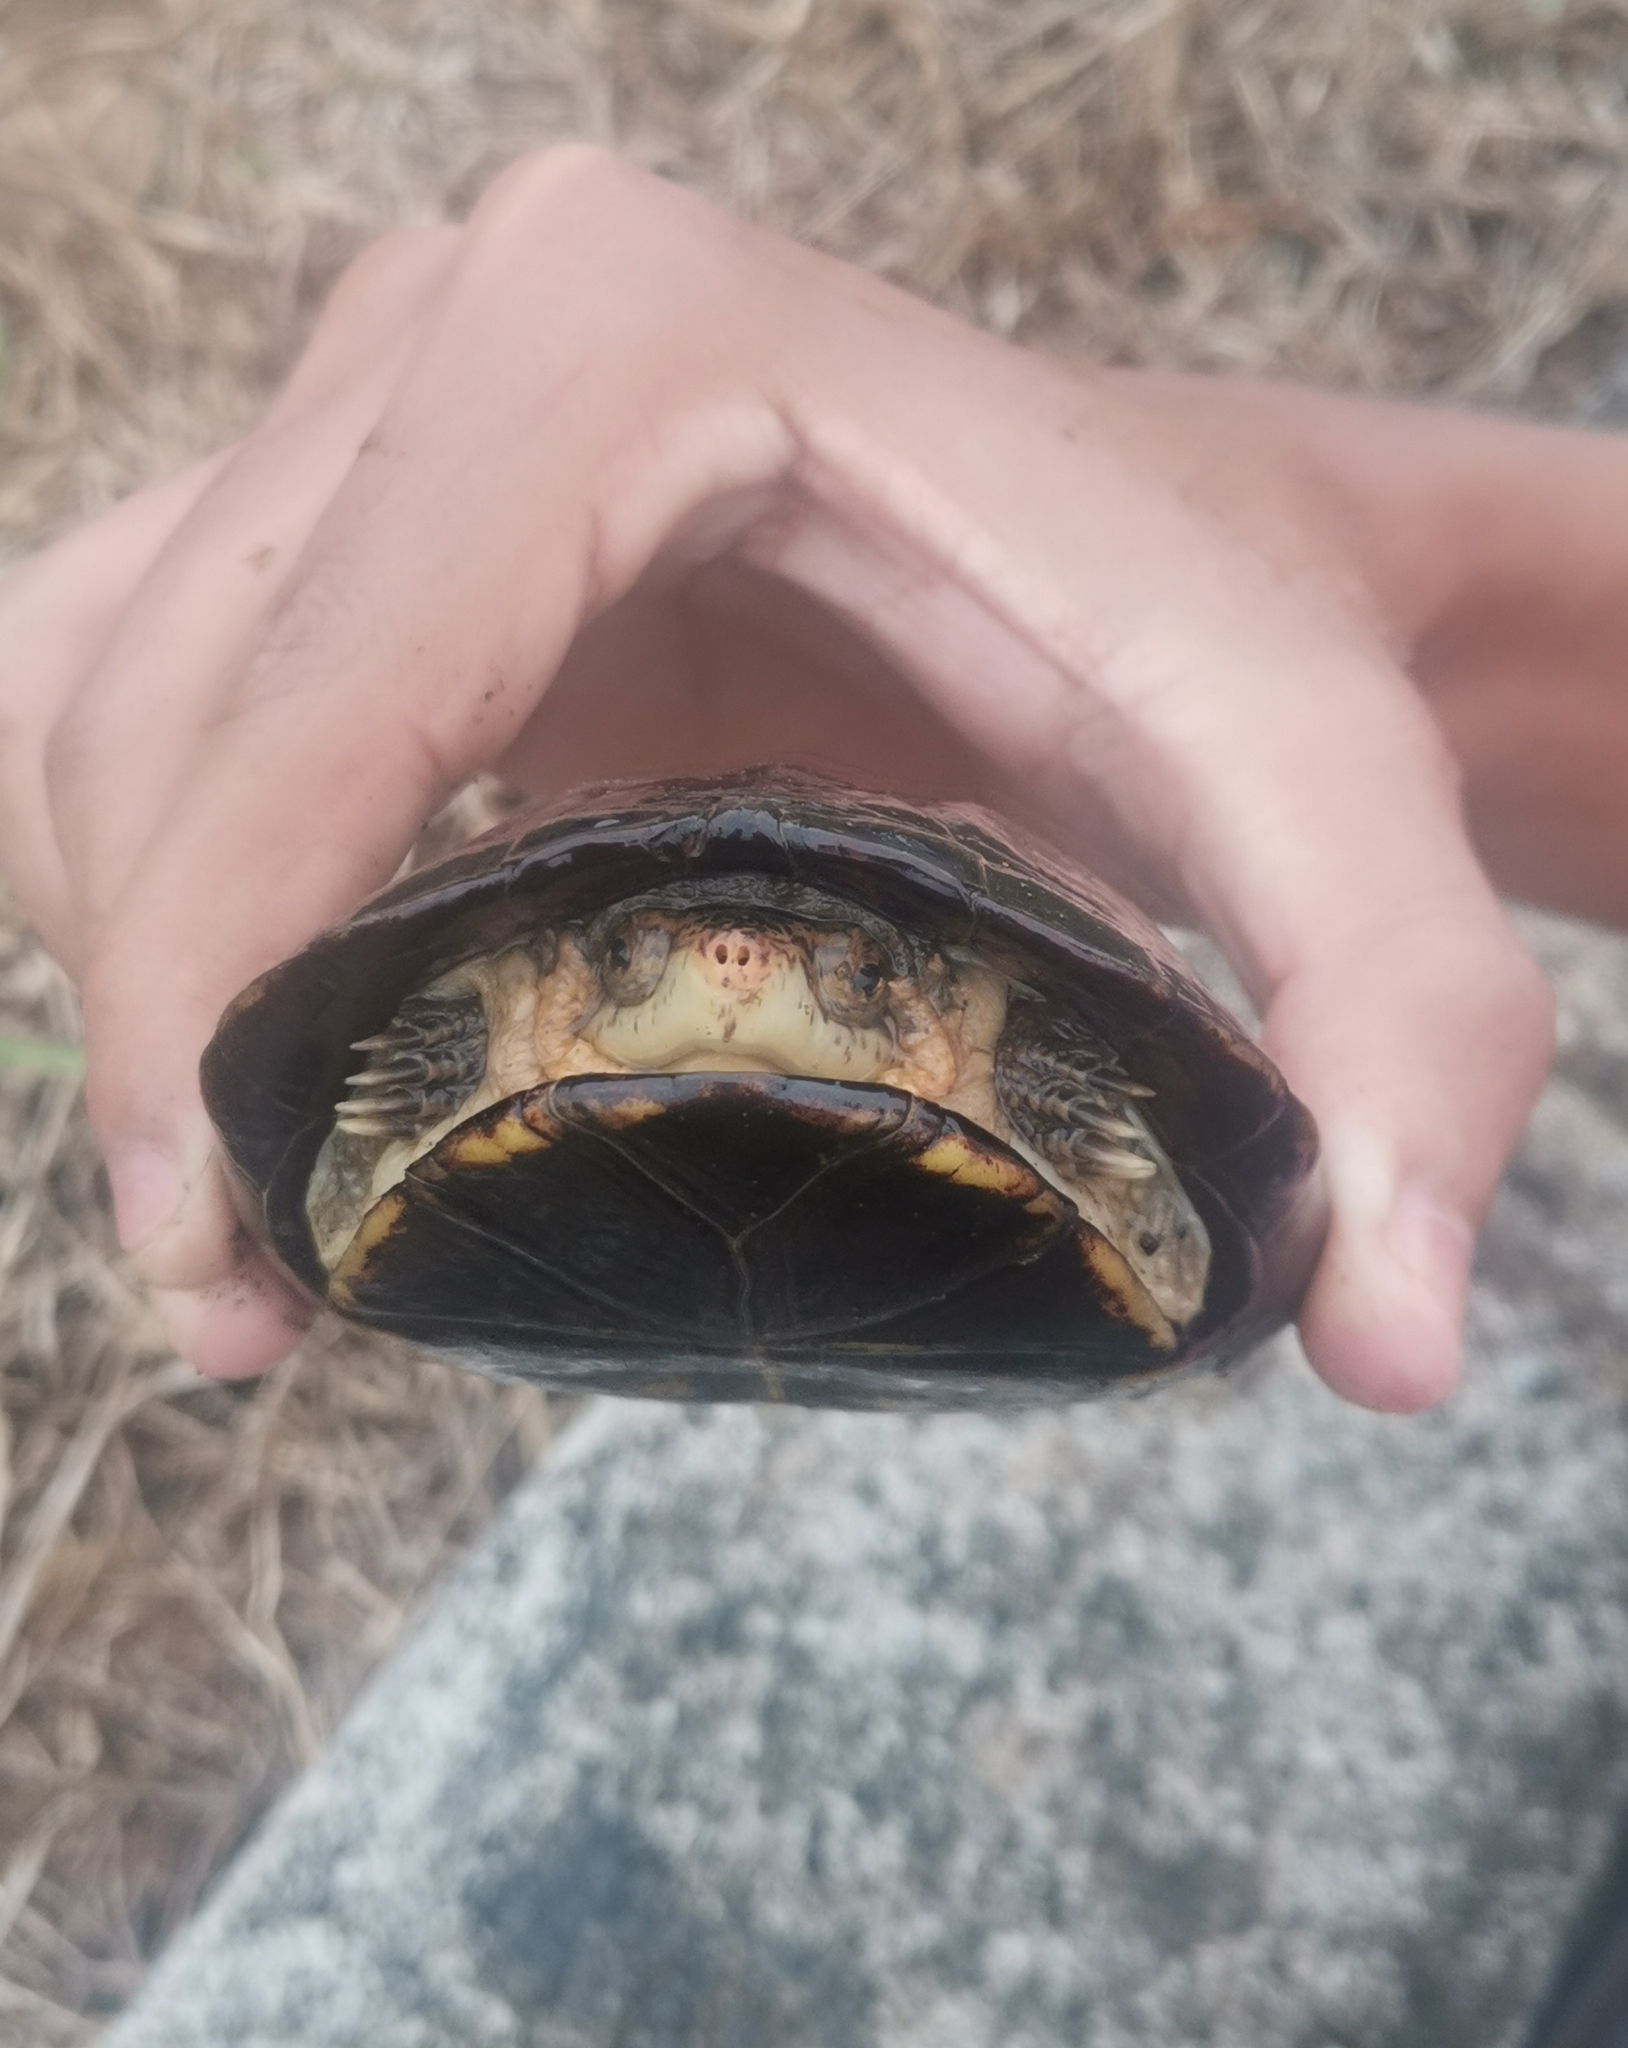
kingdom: Animalia
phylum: Chordata
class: Testudines
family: Kinosternidae
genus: Kinosternon
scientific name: Kinosternon scorpioides
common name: Scorpion mud turtle
